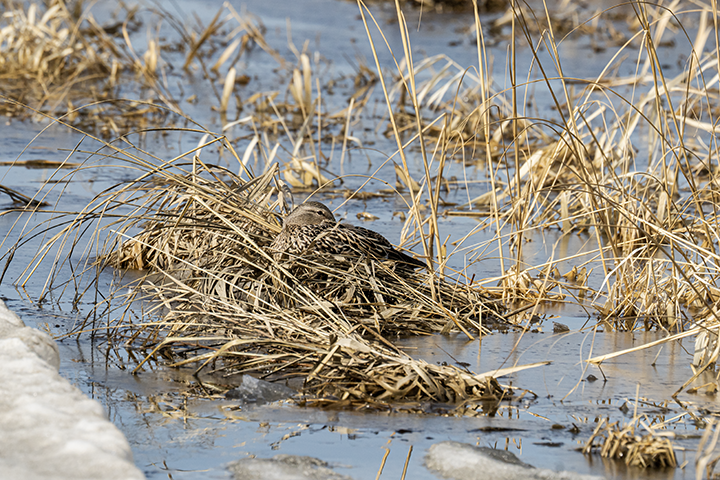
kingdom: Animalia
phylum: Chordata
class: Aves
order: Anseriformes
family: Anatidae
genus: Anas
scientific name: Anas platyrhynchos
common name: Mallard
